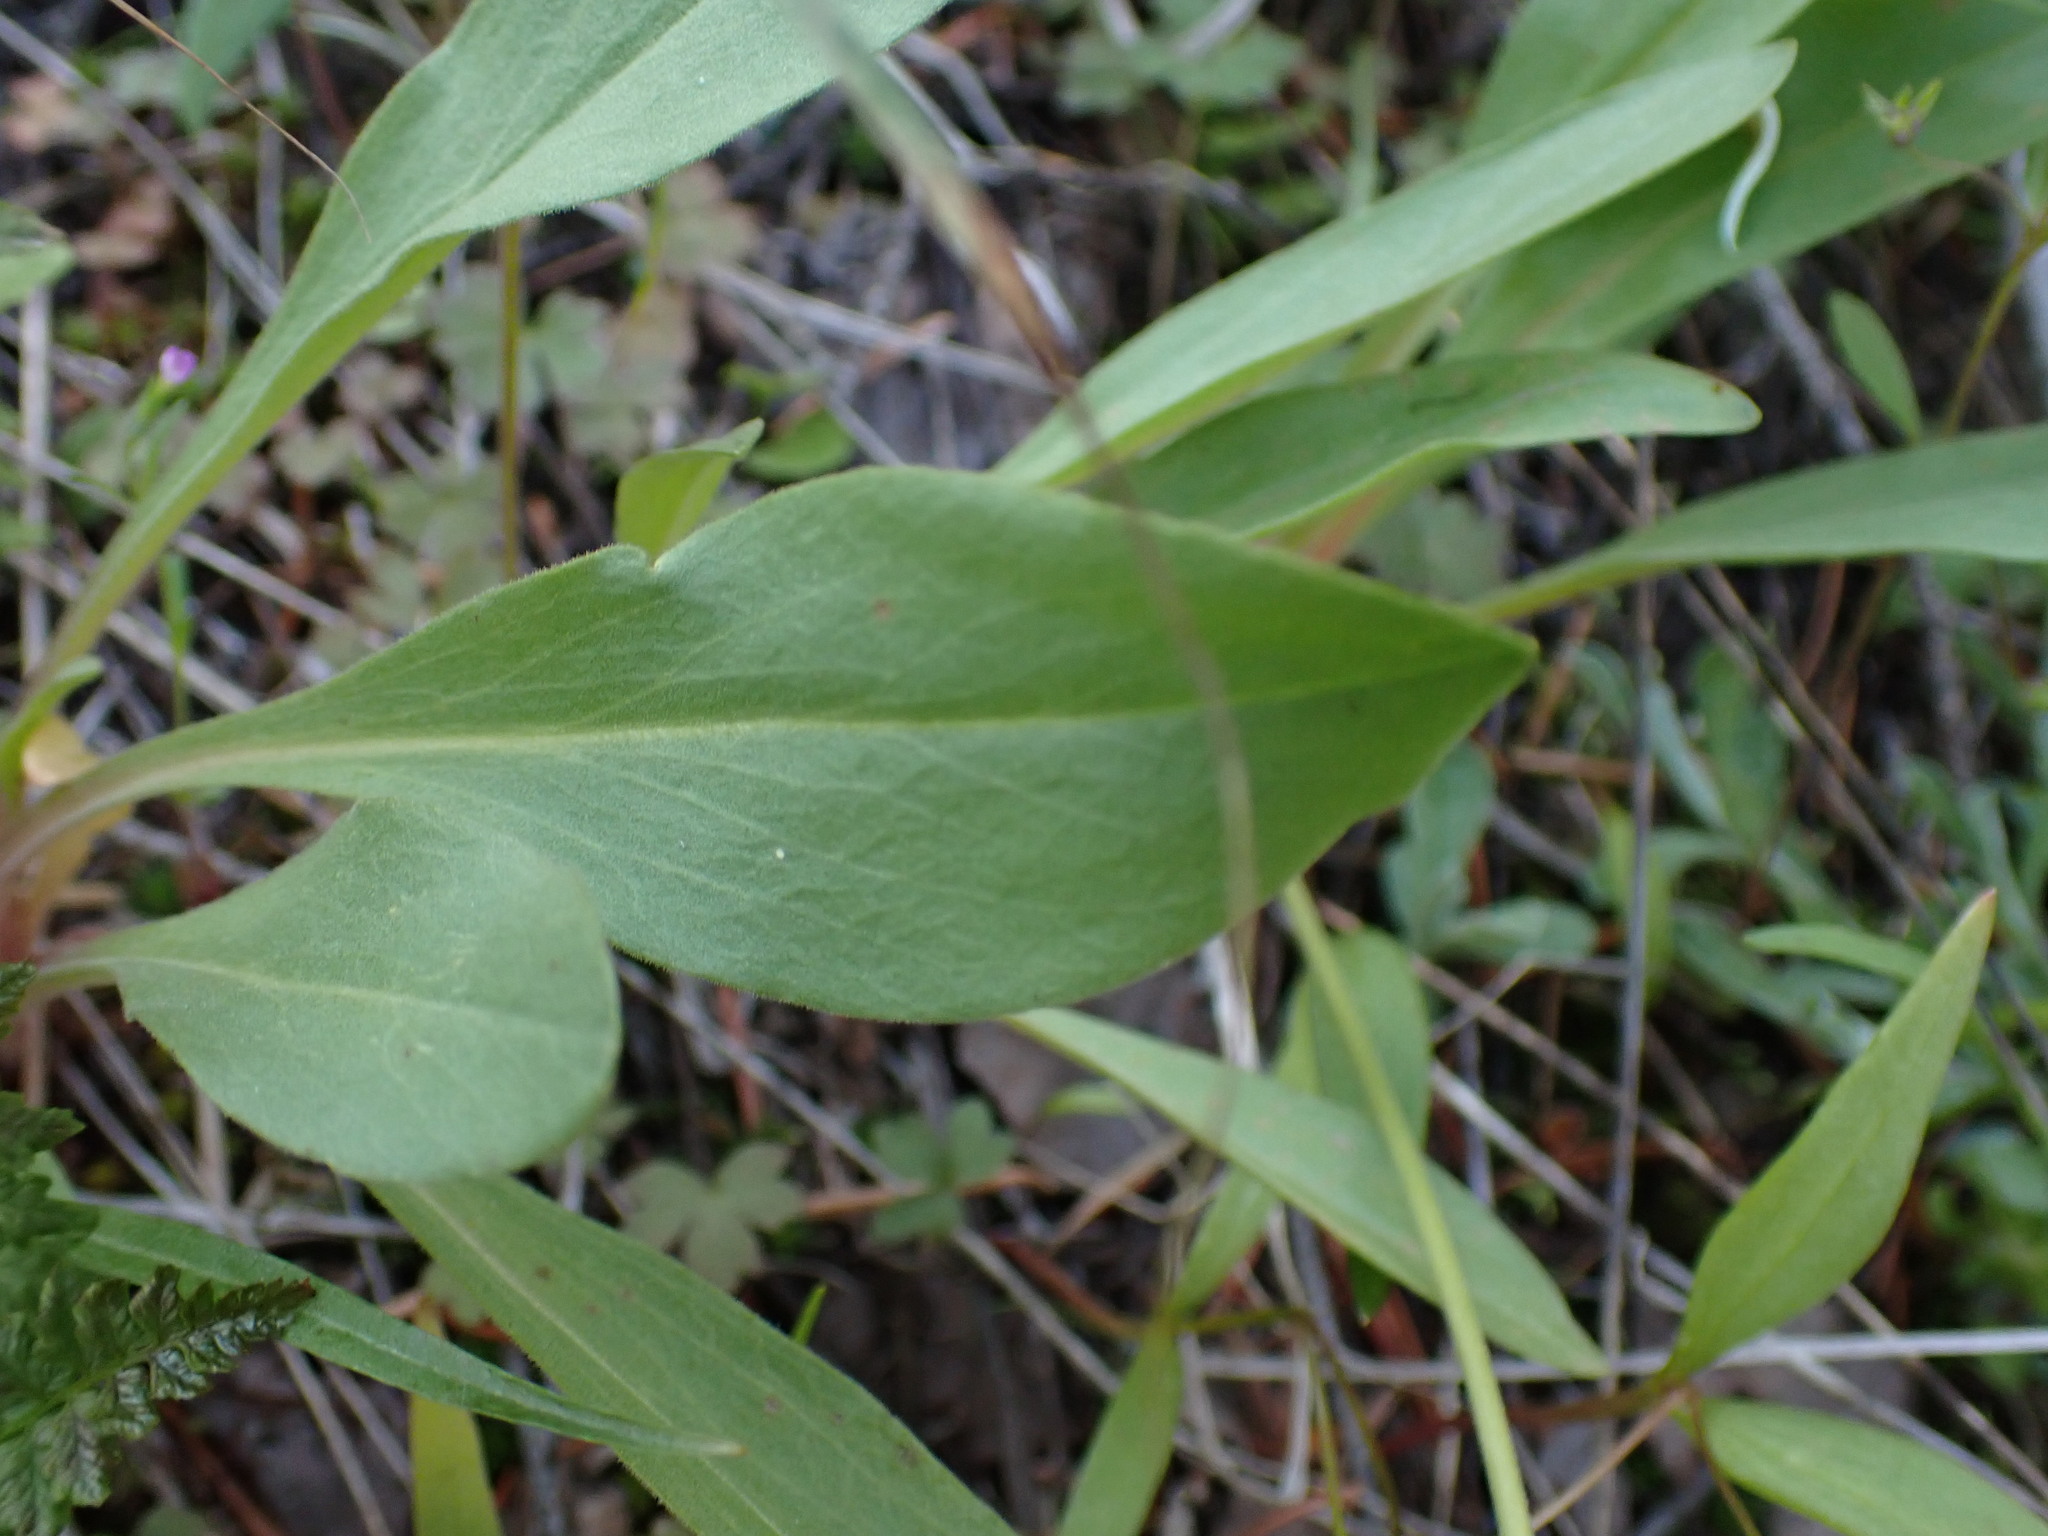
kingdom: Plantae
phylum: Tracheophyta
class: Magnoliopsida
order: Ericales
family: Primulaceae
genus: Dodecatheon
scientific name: Dodecatheon pulchellum
